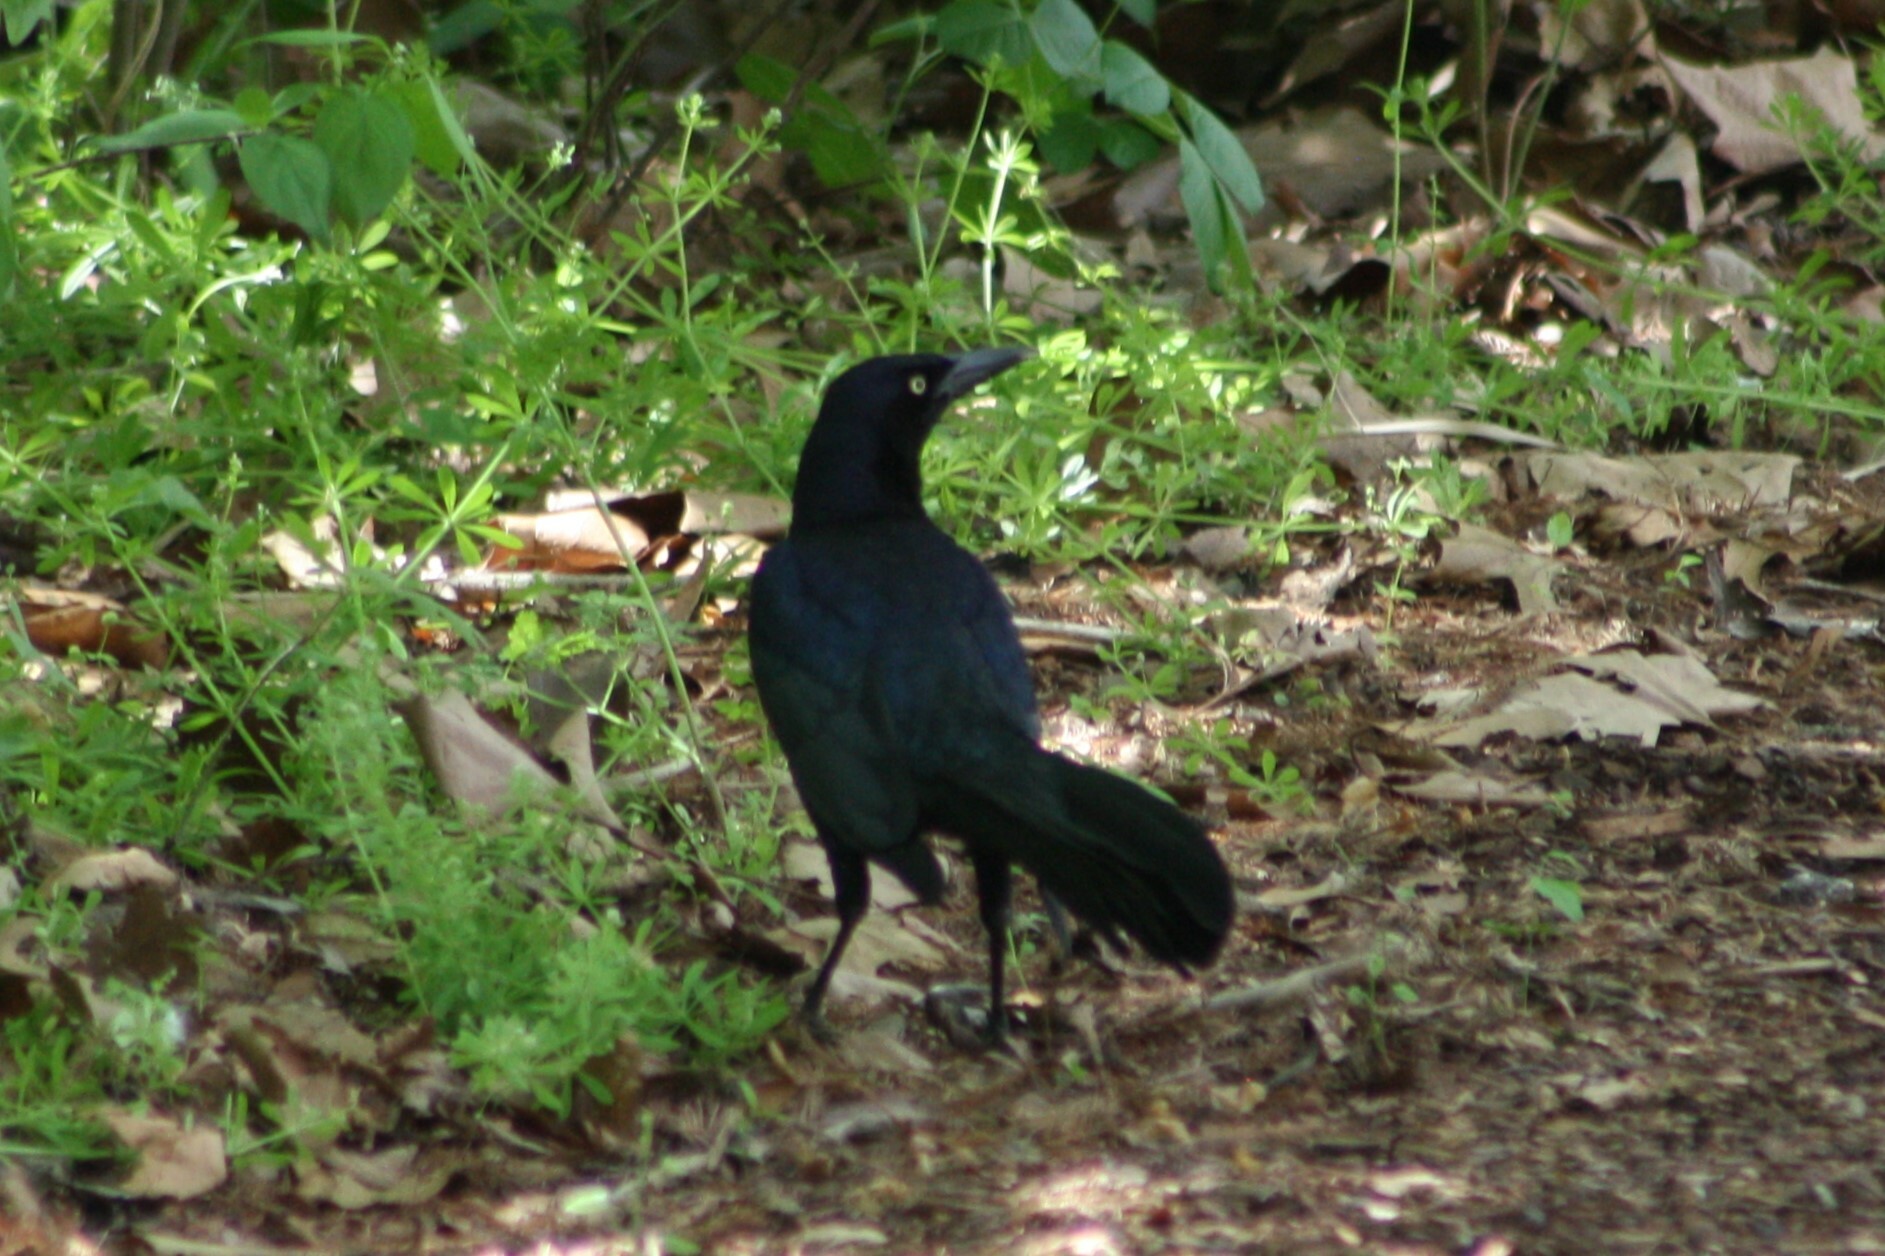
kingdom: Animalia
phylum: Chordata
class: Aves
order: Passeriformes
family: Icteridae
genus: Quiscalus
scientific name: Quiscalus mexicanus
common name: Great-tailed grackle
